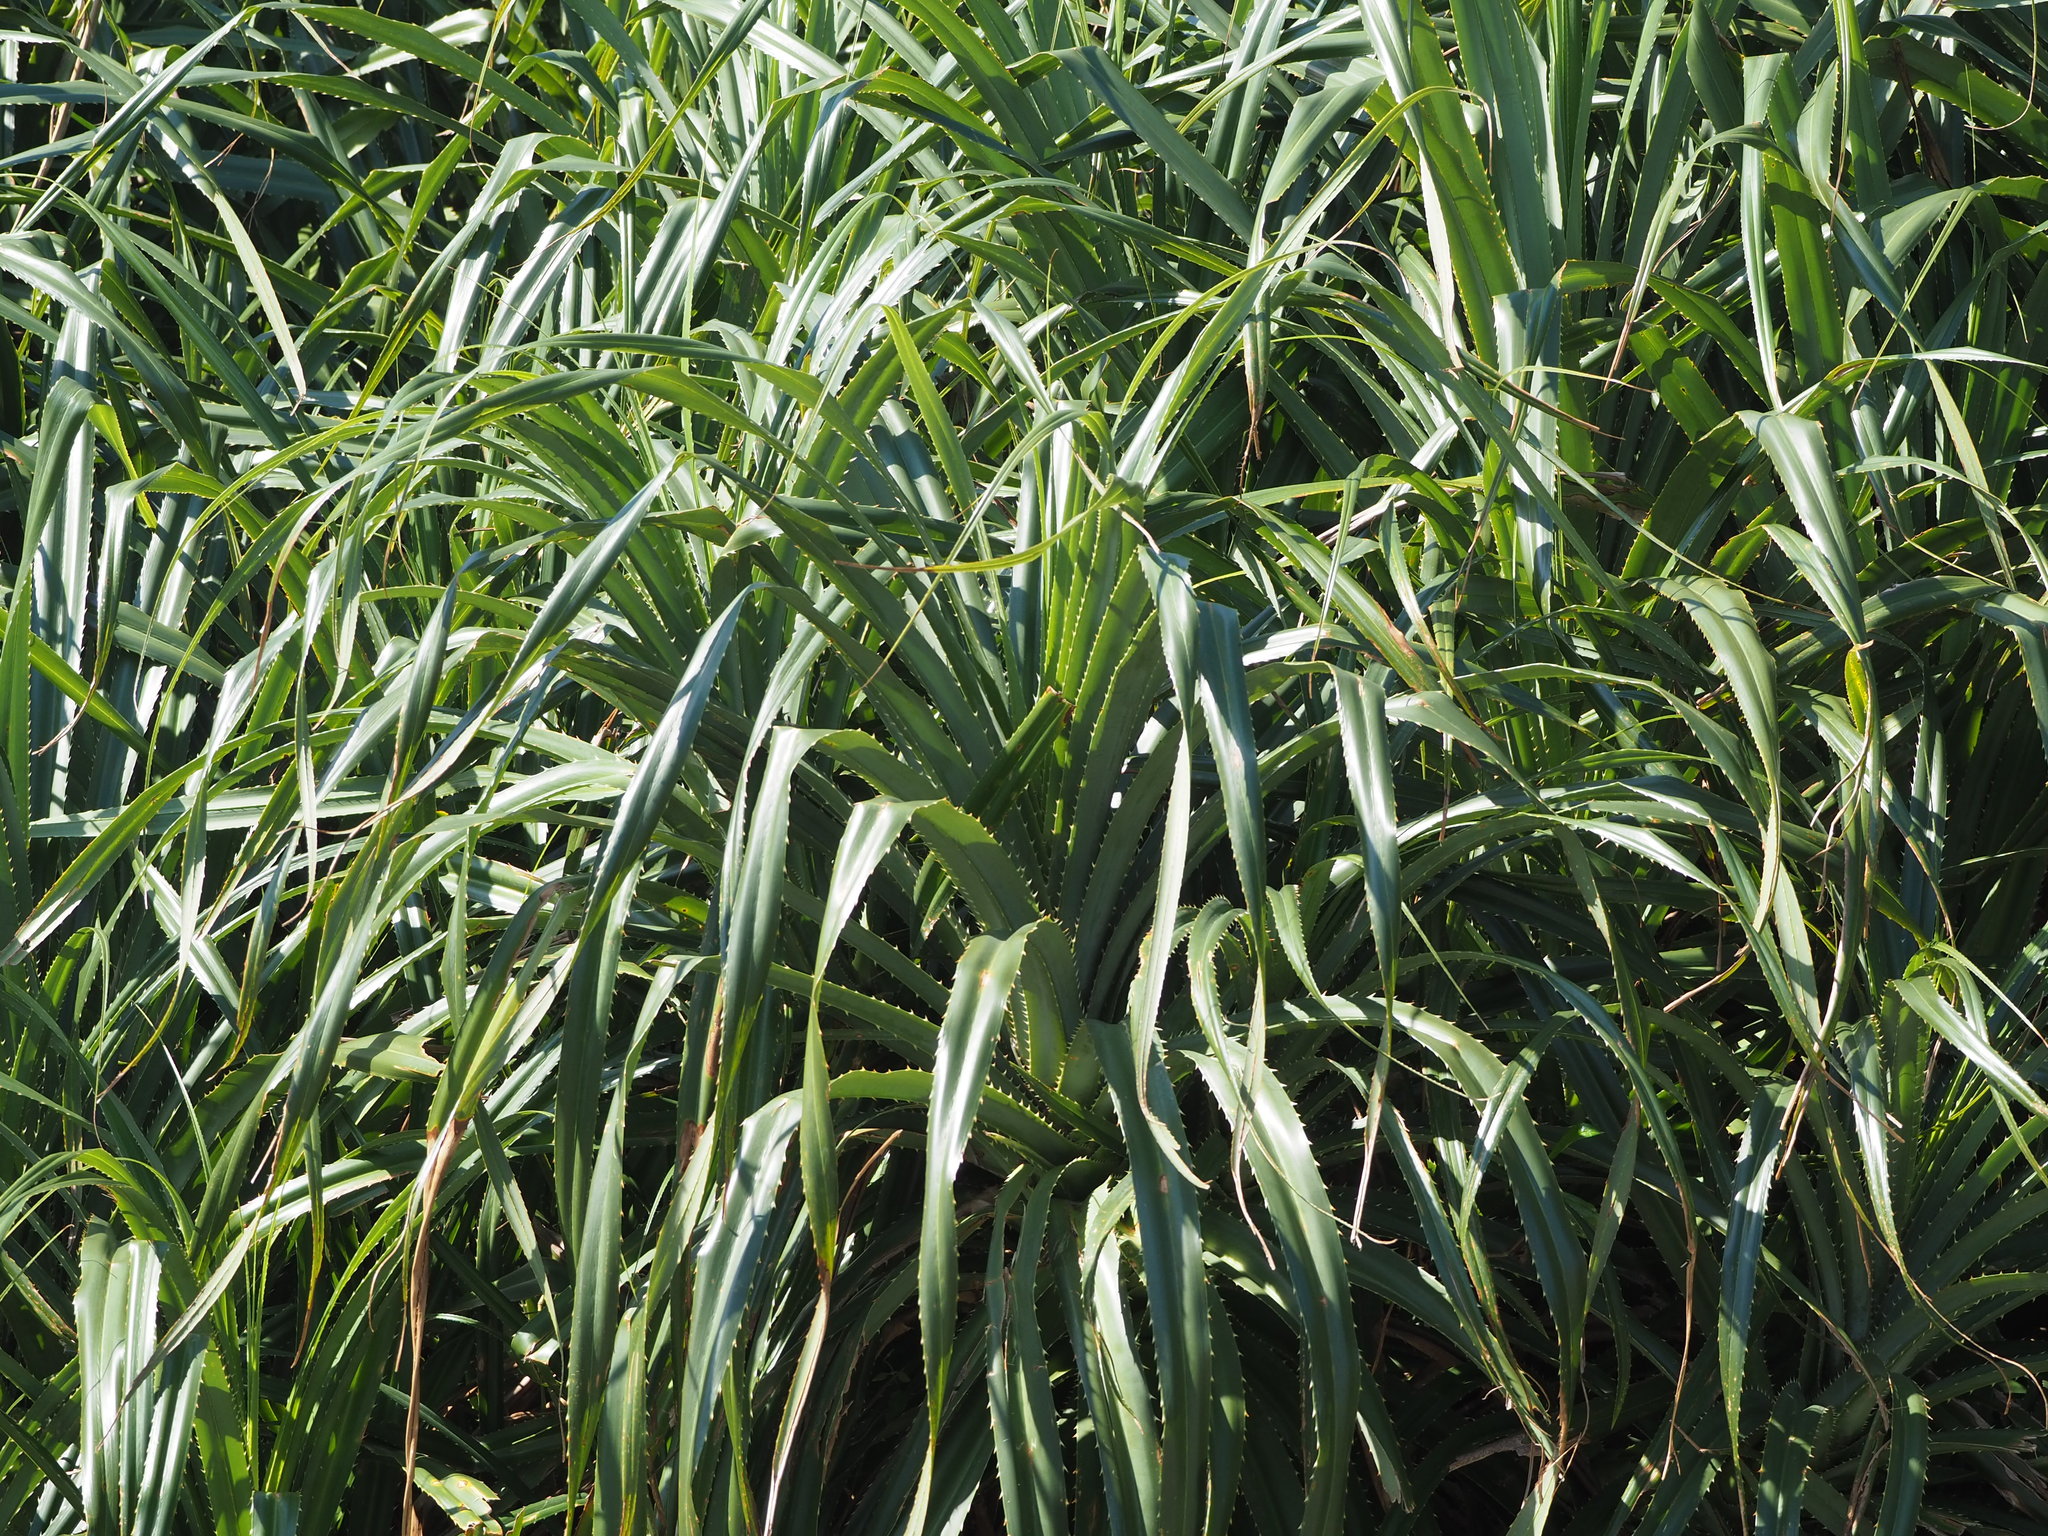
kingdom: Plantae
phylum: Tracheophyta
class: Liliopsida
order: Pandanales
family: Pandanaceae
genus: Pandanus
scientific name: Pandanus odorifer
